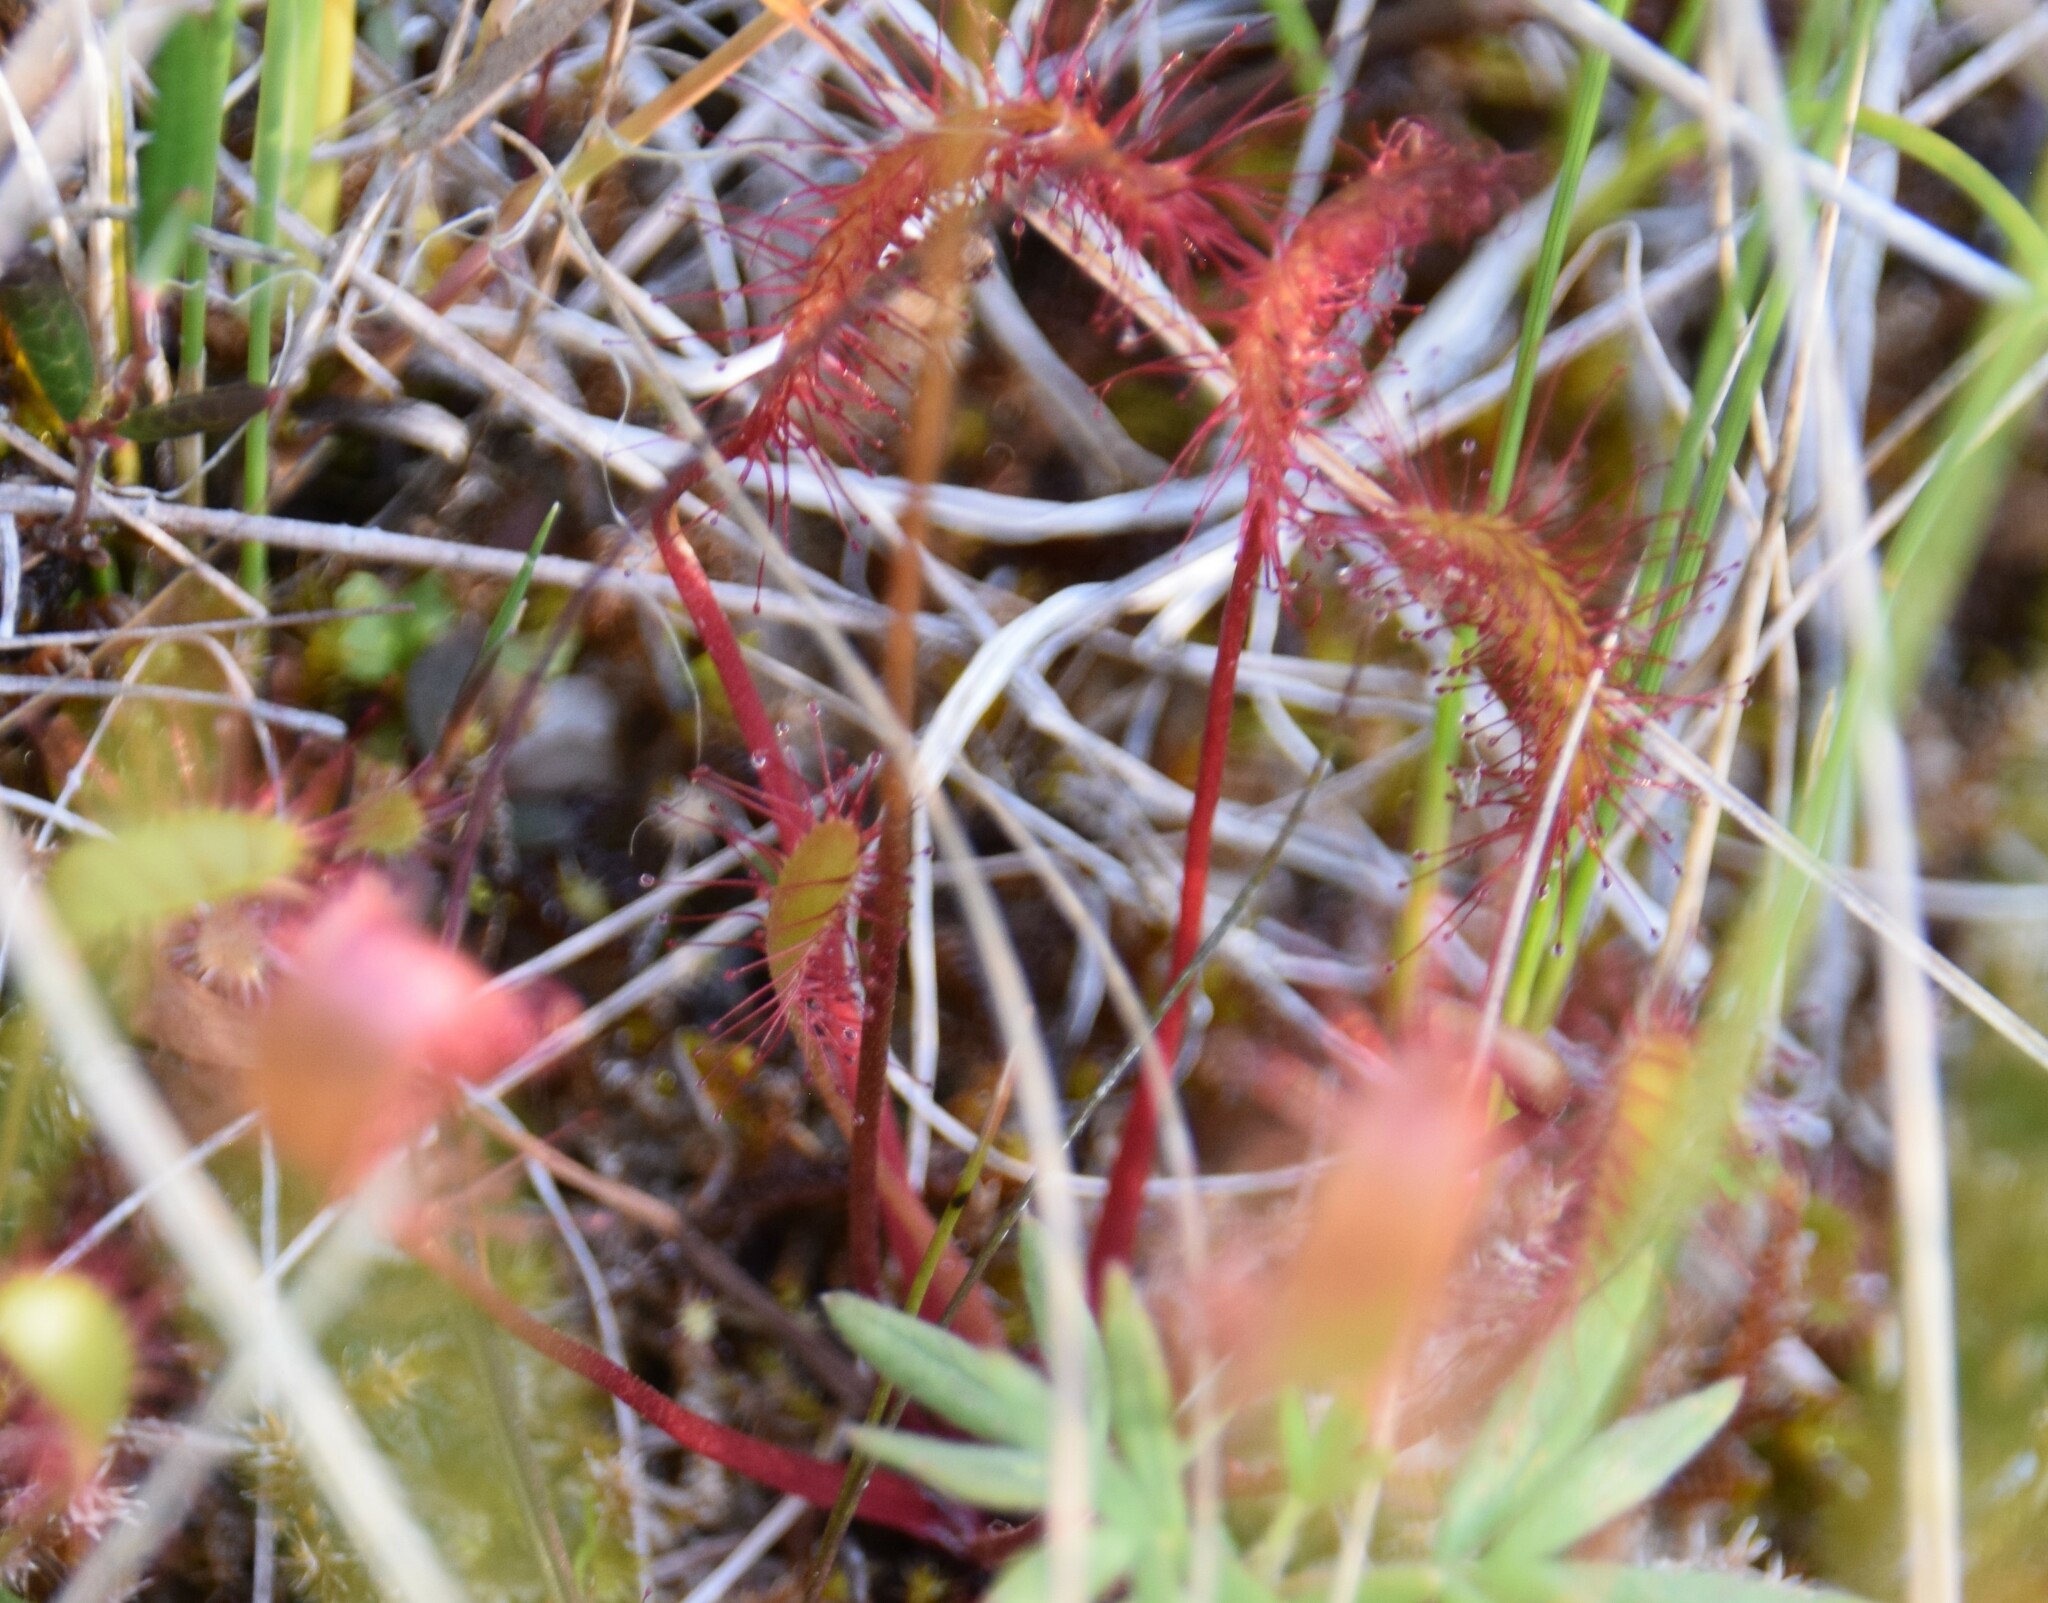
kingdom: Plantae
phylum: Tracheophyta
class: Magnoliopsida
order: Caryophyllales
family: Droseraceae
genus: Drosera
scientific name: Drosera anglica
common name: Great sundew
